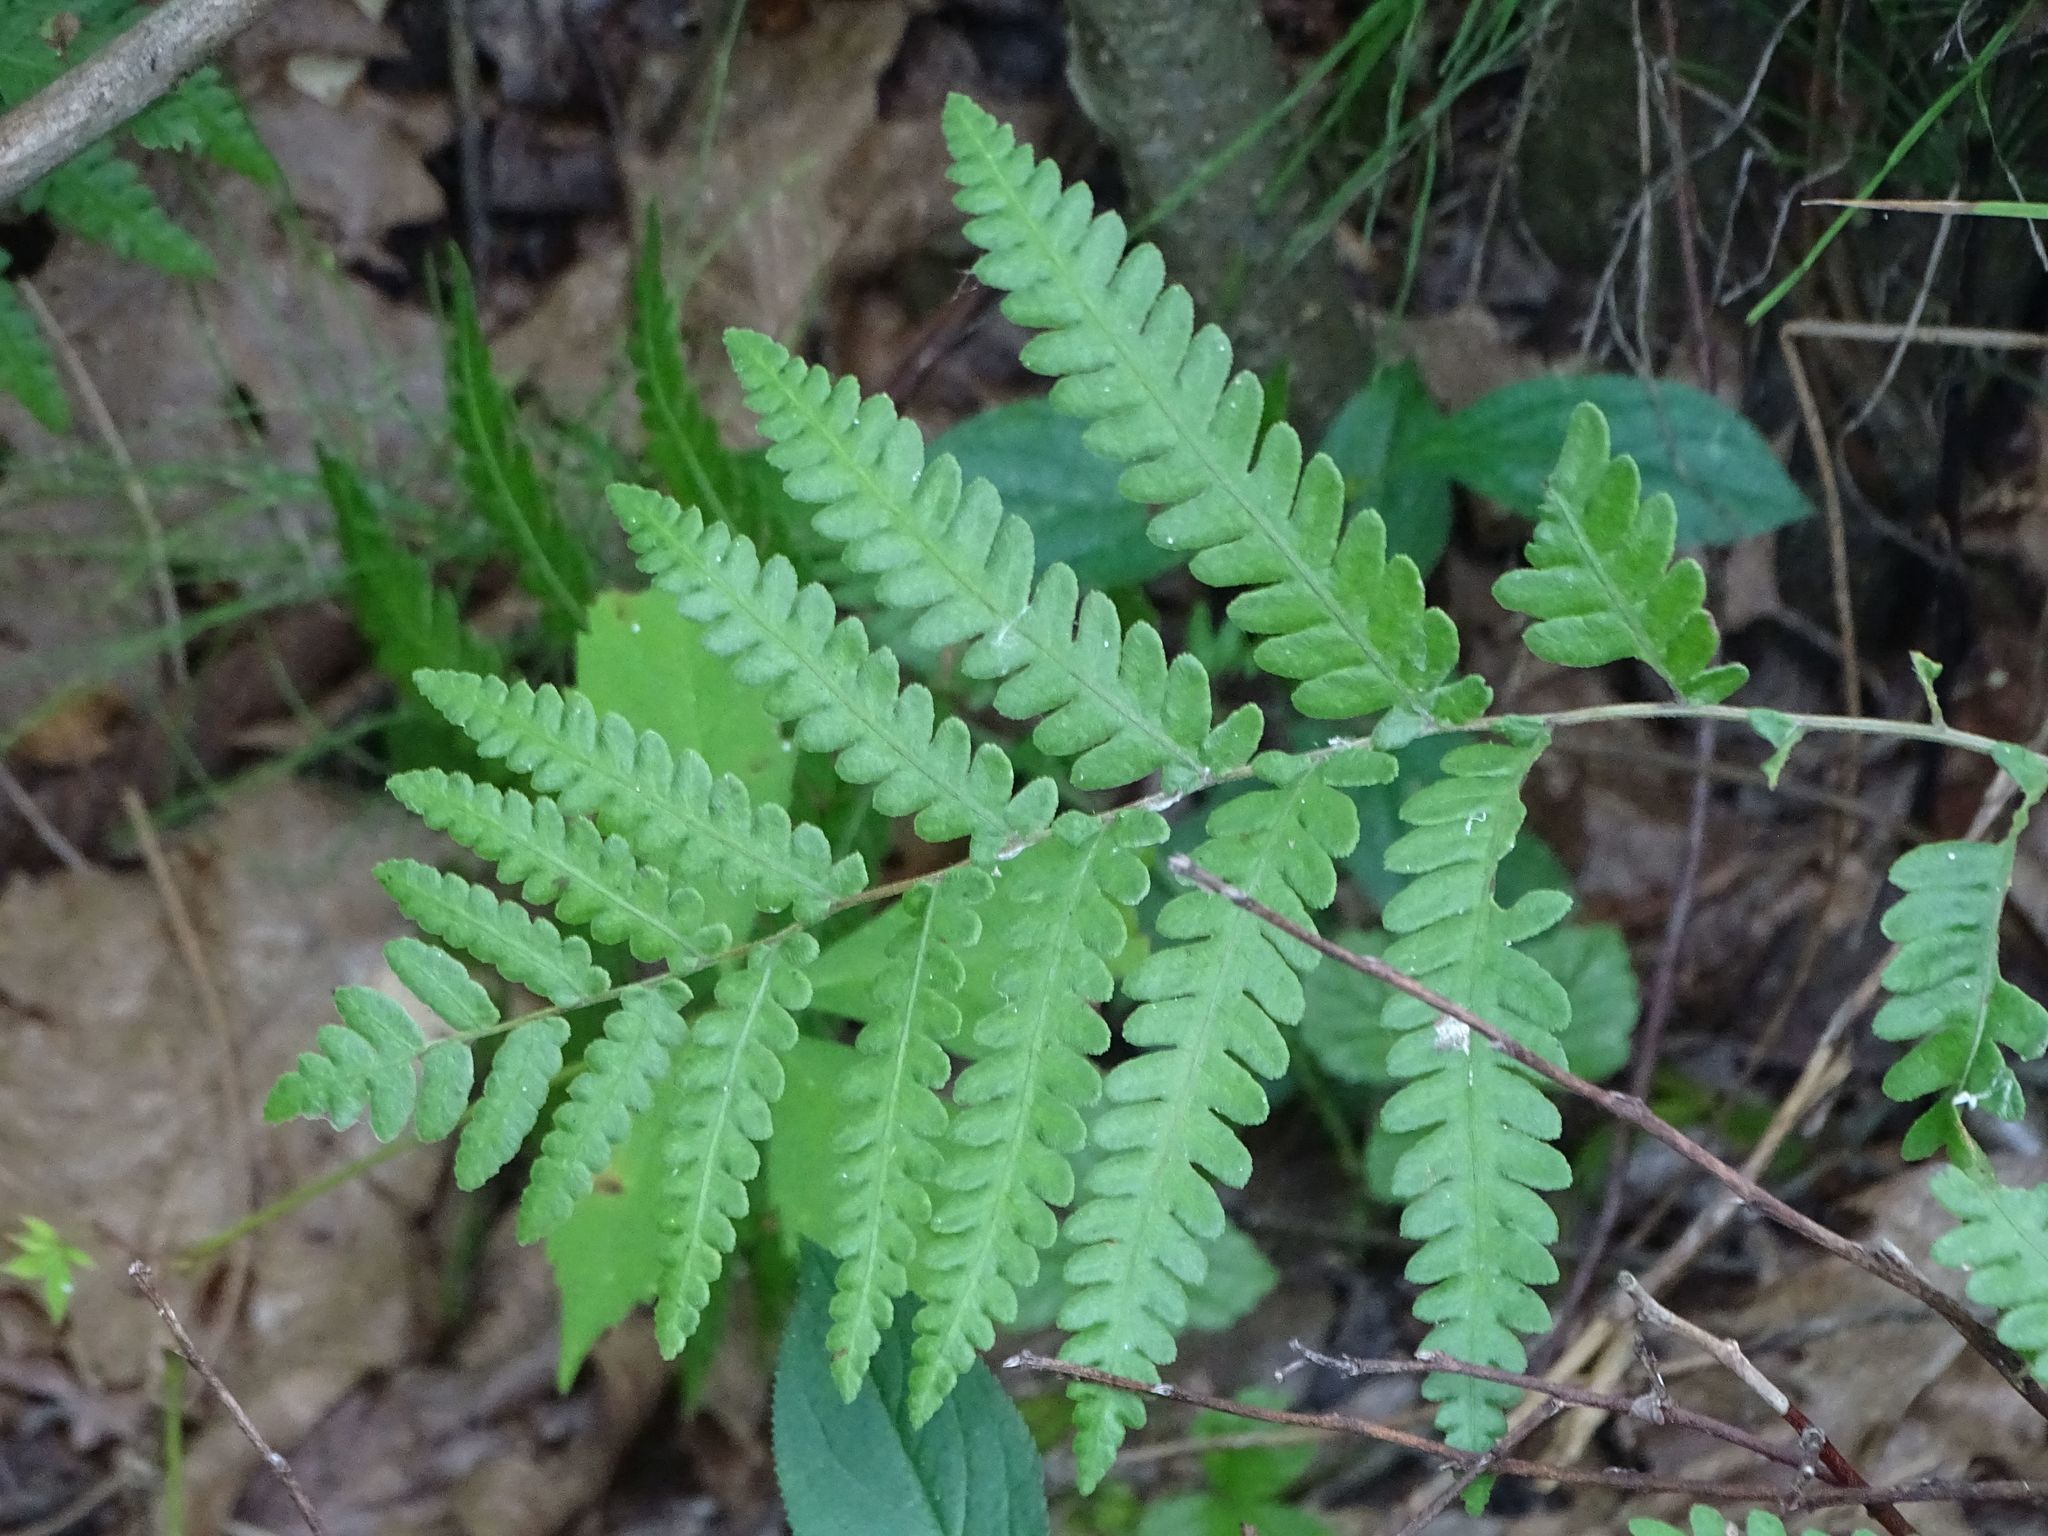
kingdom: Plantae
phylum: Tracheophyta
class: Polypodiopsida
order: Polypodiales
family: Blechnaceae
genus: Anchistea
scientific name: Anchistea virginica
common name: Virginia chain fern
